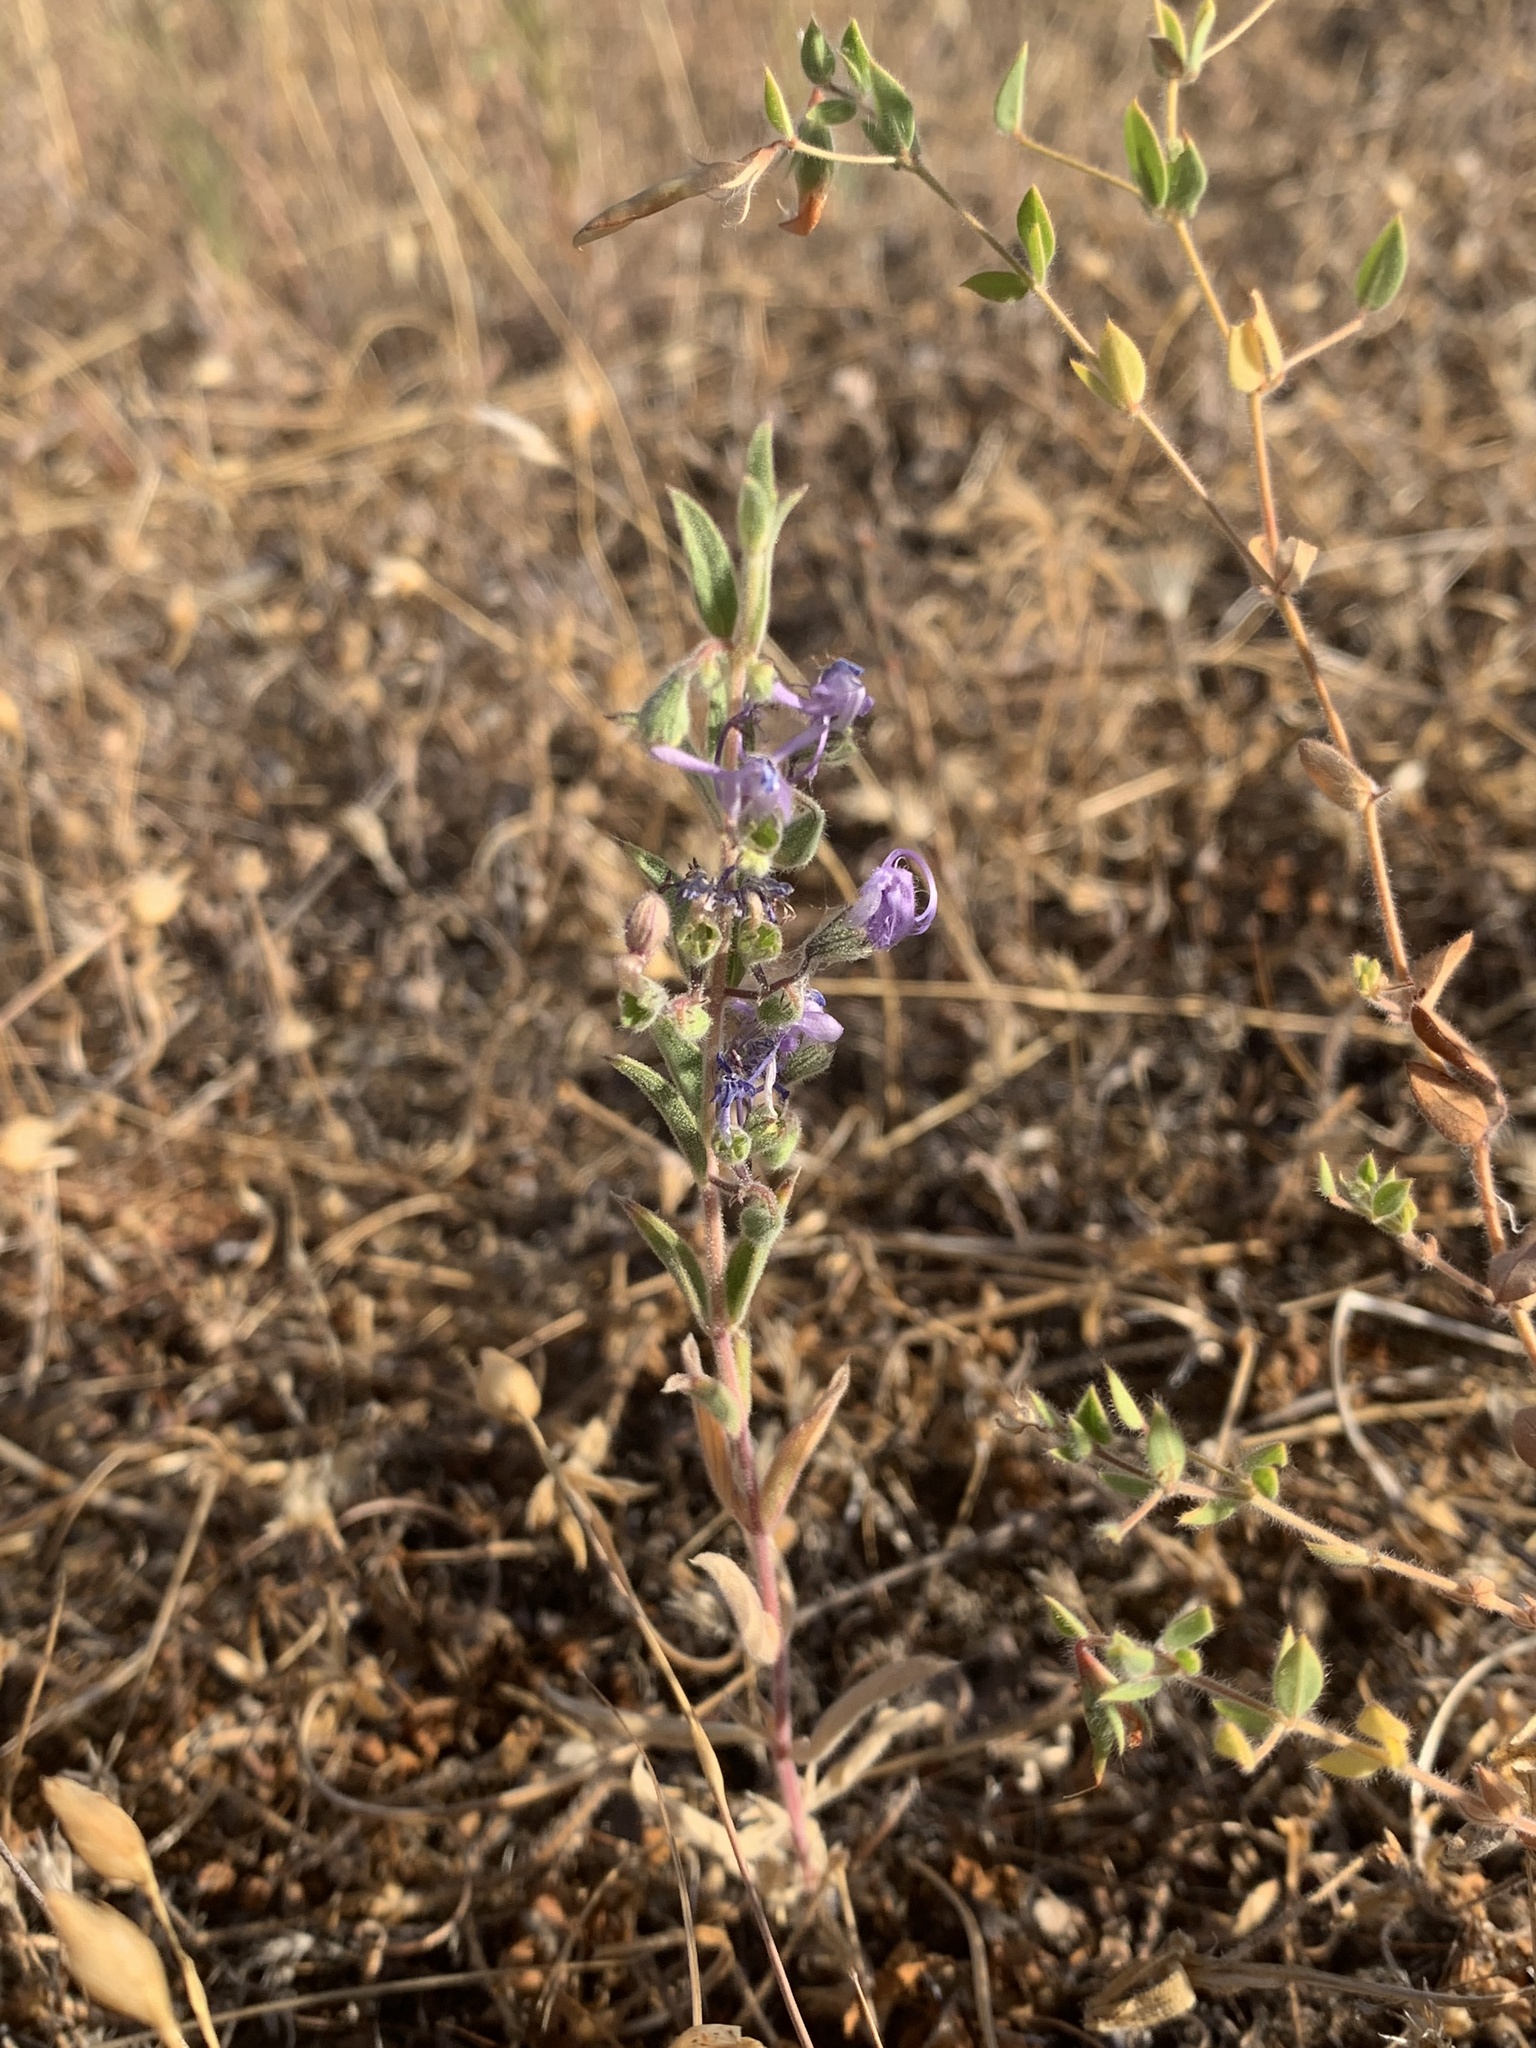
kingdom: Plantae
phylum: Tracheophyta
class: Magnoliopsida
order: Lamiales
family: Lamiaceae
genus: Trichostema
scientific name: Trichostema lanceolatum
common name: Vinegar-weed
